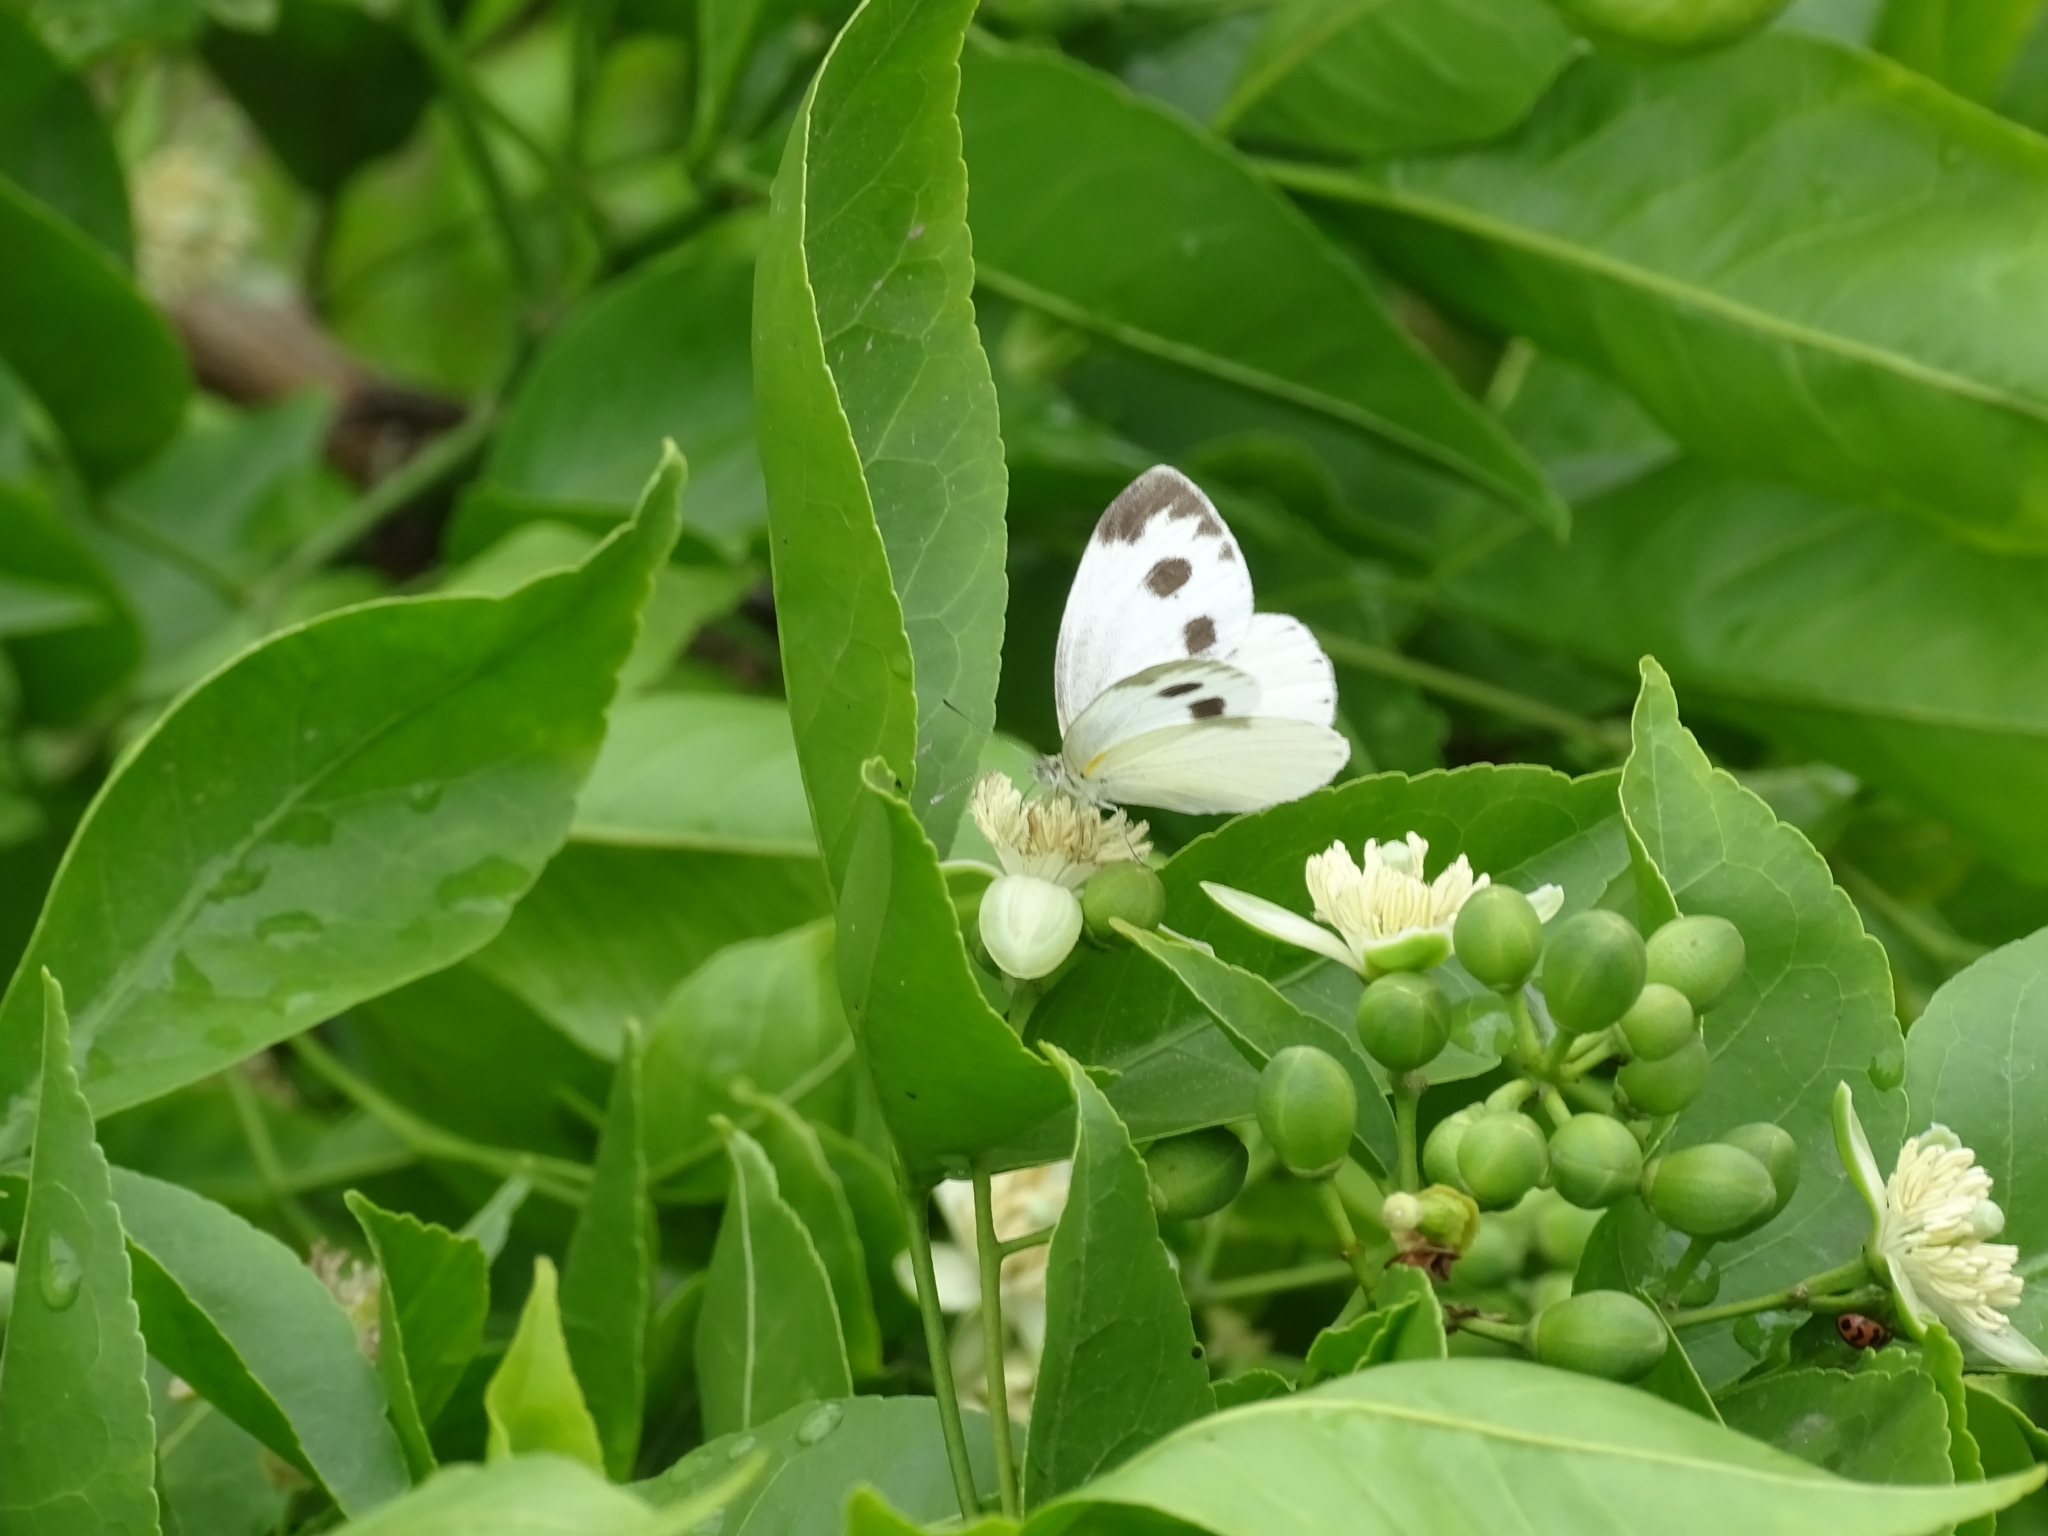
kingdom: Animalia
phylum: Arthropoda
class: Insecta
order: Lepidoptera
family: Pieridae
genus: Pieris
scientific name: Pieris canidia
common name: Indian cabbage white
